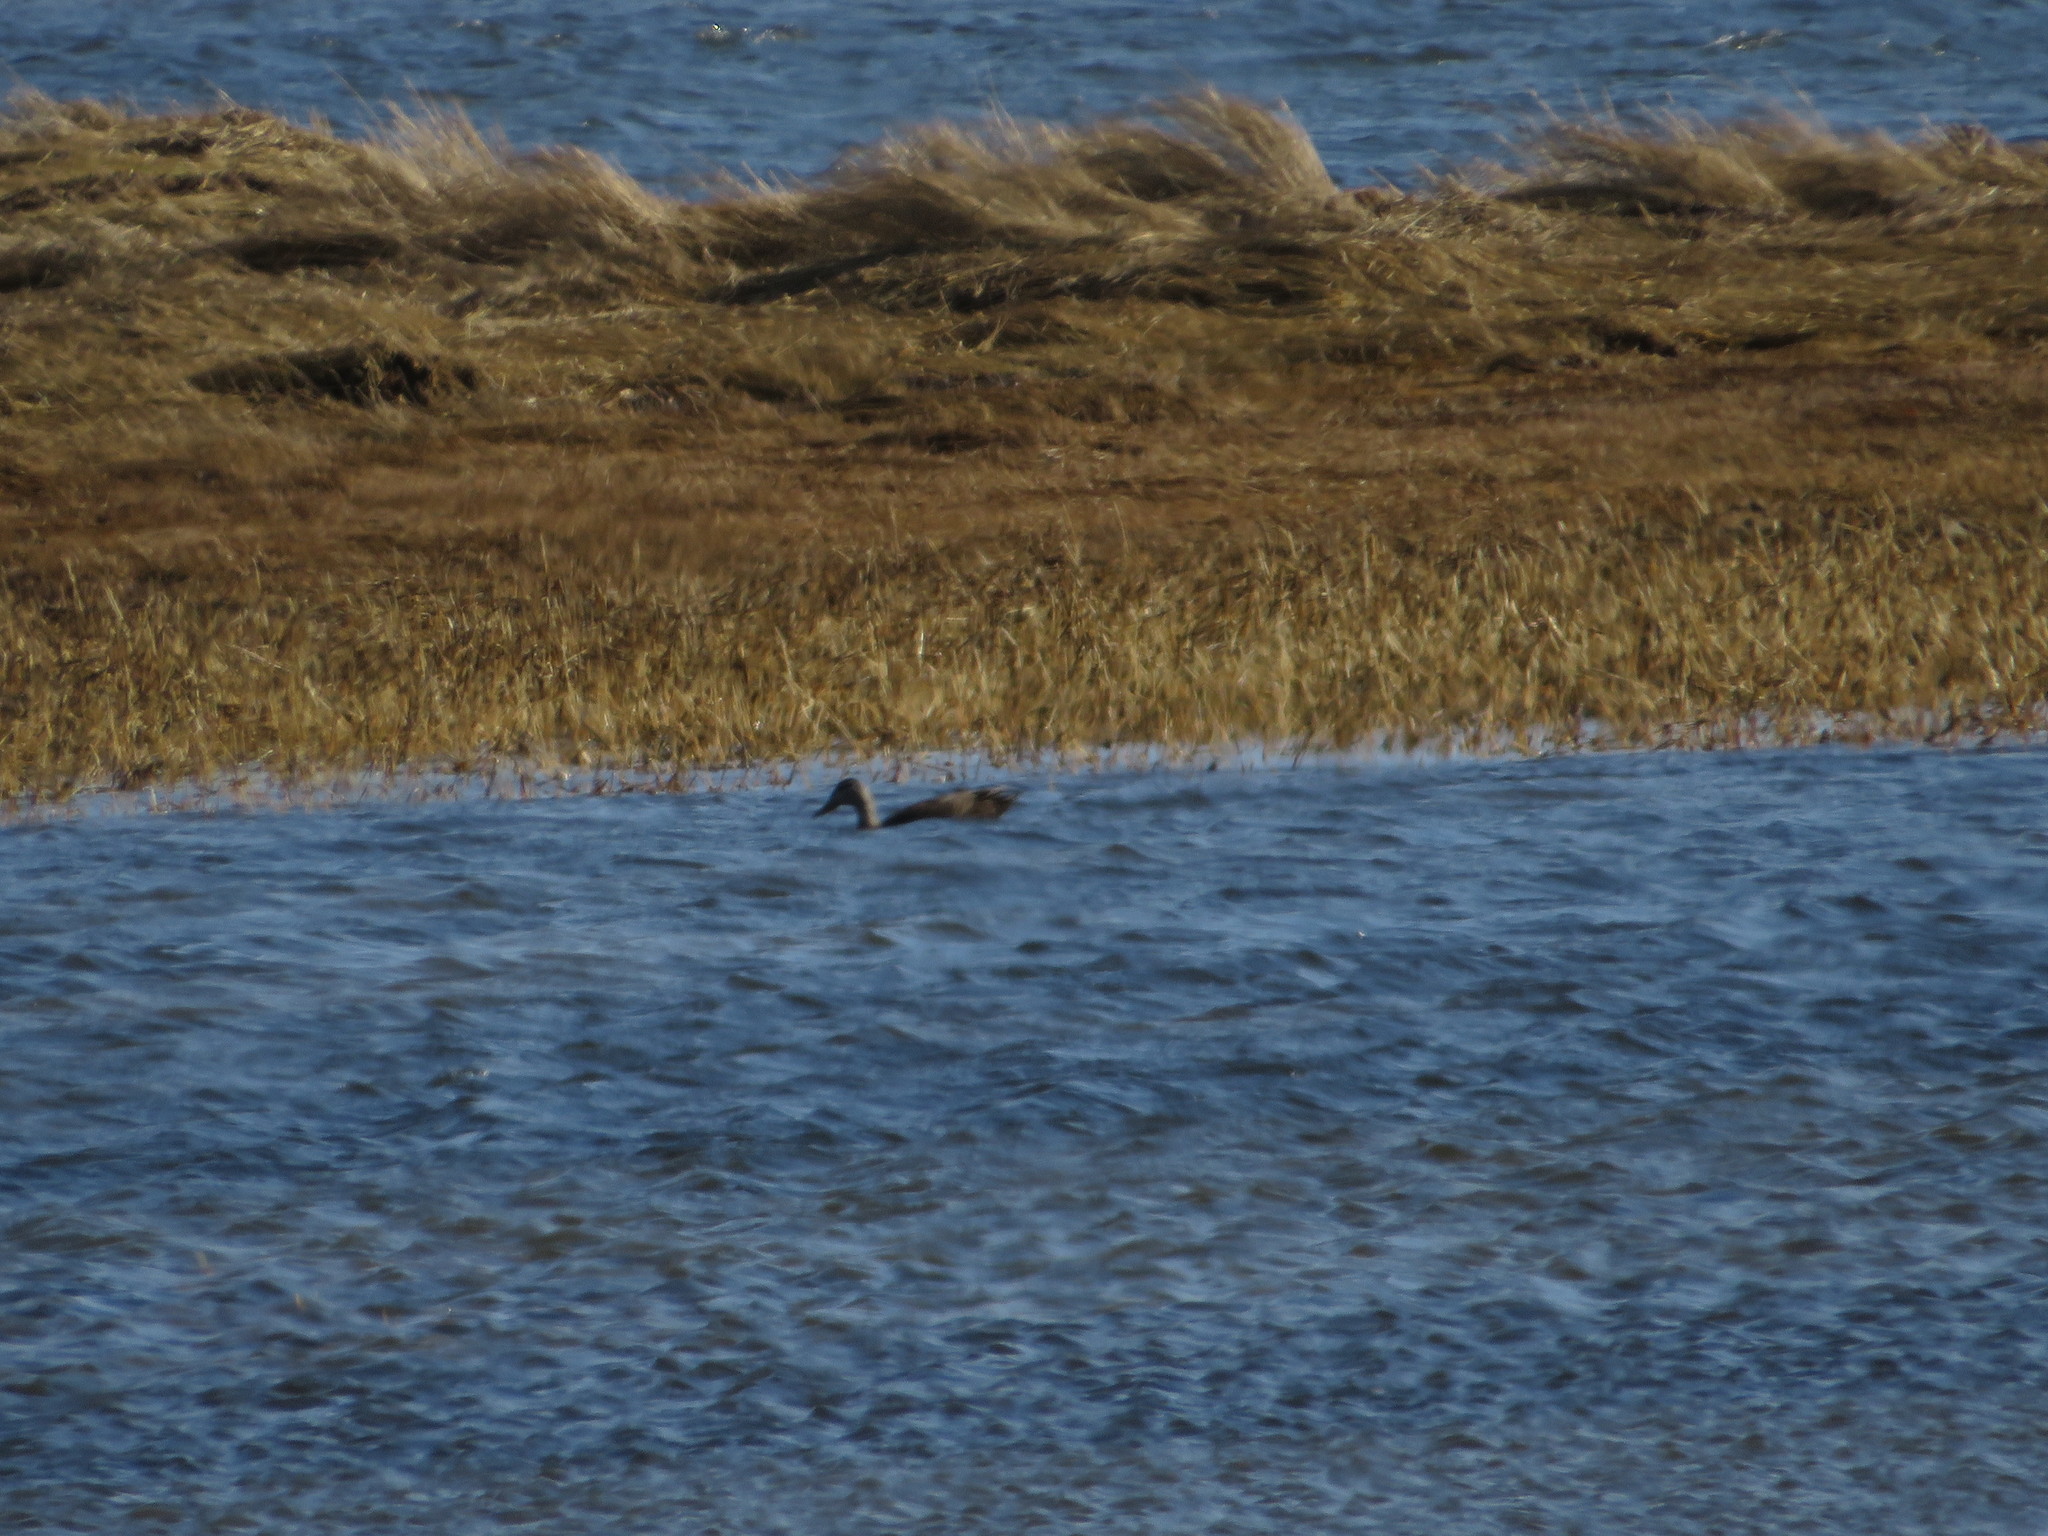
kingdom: Animalia
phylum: Chordata
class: Aves
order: Anseriformes
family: Anatidae
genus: Anas
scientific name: Anas rubripes
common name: American black duck
